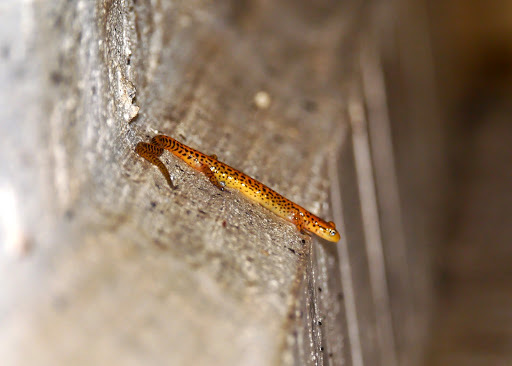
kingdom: Animalia
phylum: Chordata
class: Amphibia
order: Caudata
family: Plethodontidae
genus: Eurycea
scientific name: Eurycea longicauda
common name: Long-tailed salamander
